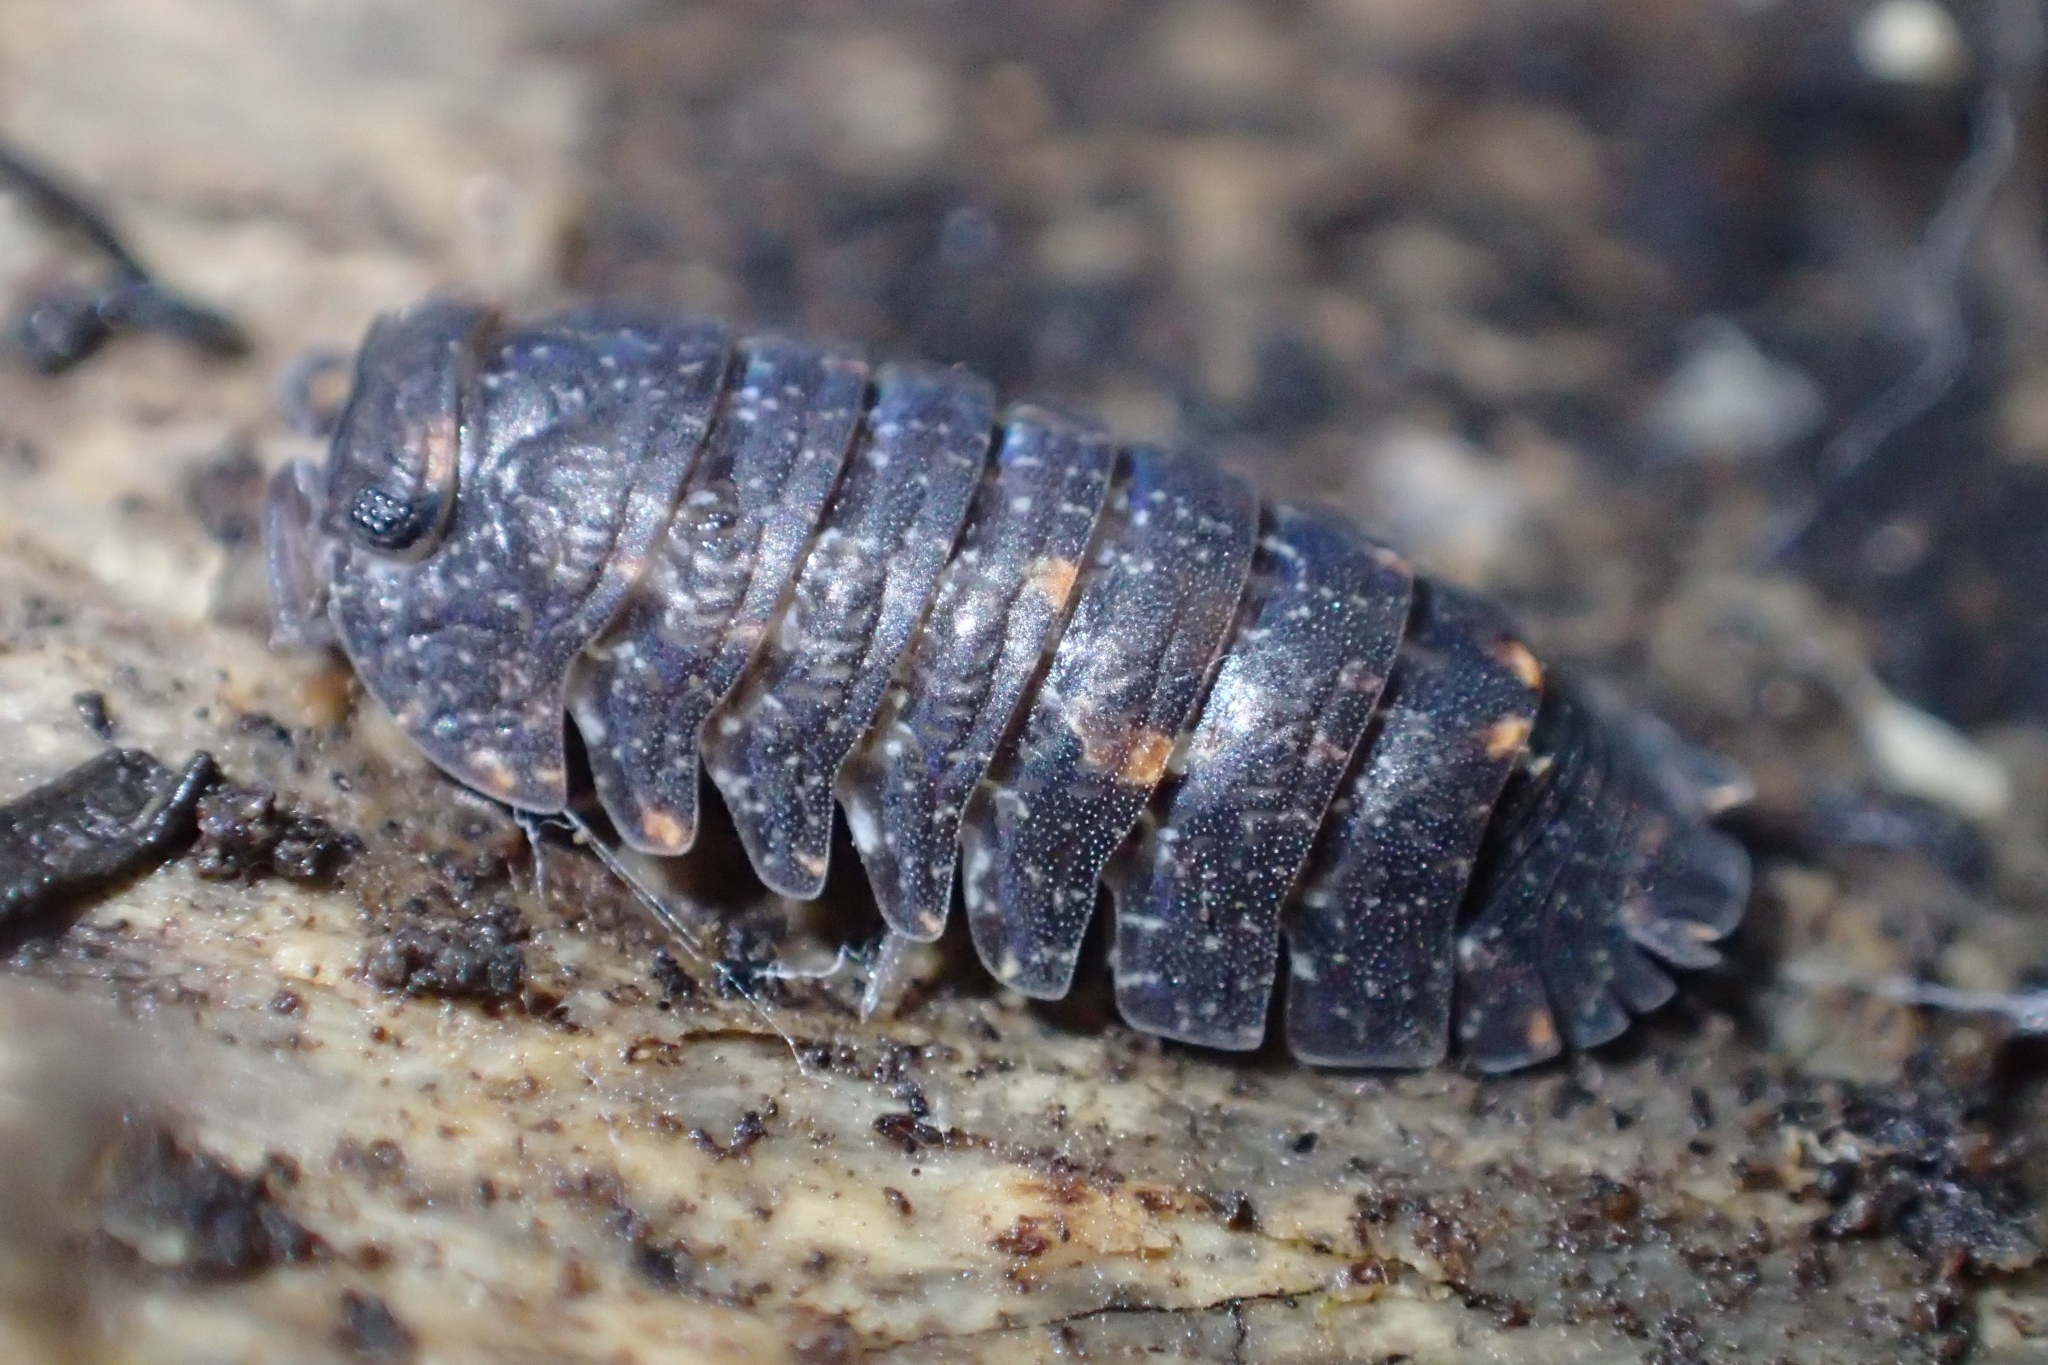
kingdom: Animalia
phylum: Arthropoda
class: Malacostraca
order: Isopoda
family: Armadillidae
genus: Cubaris
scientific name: Cubaris tarangensis
